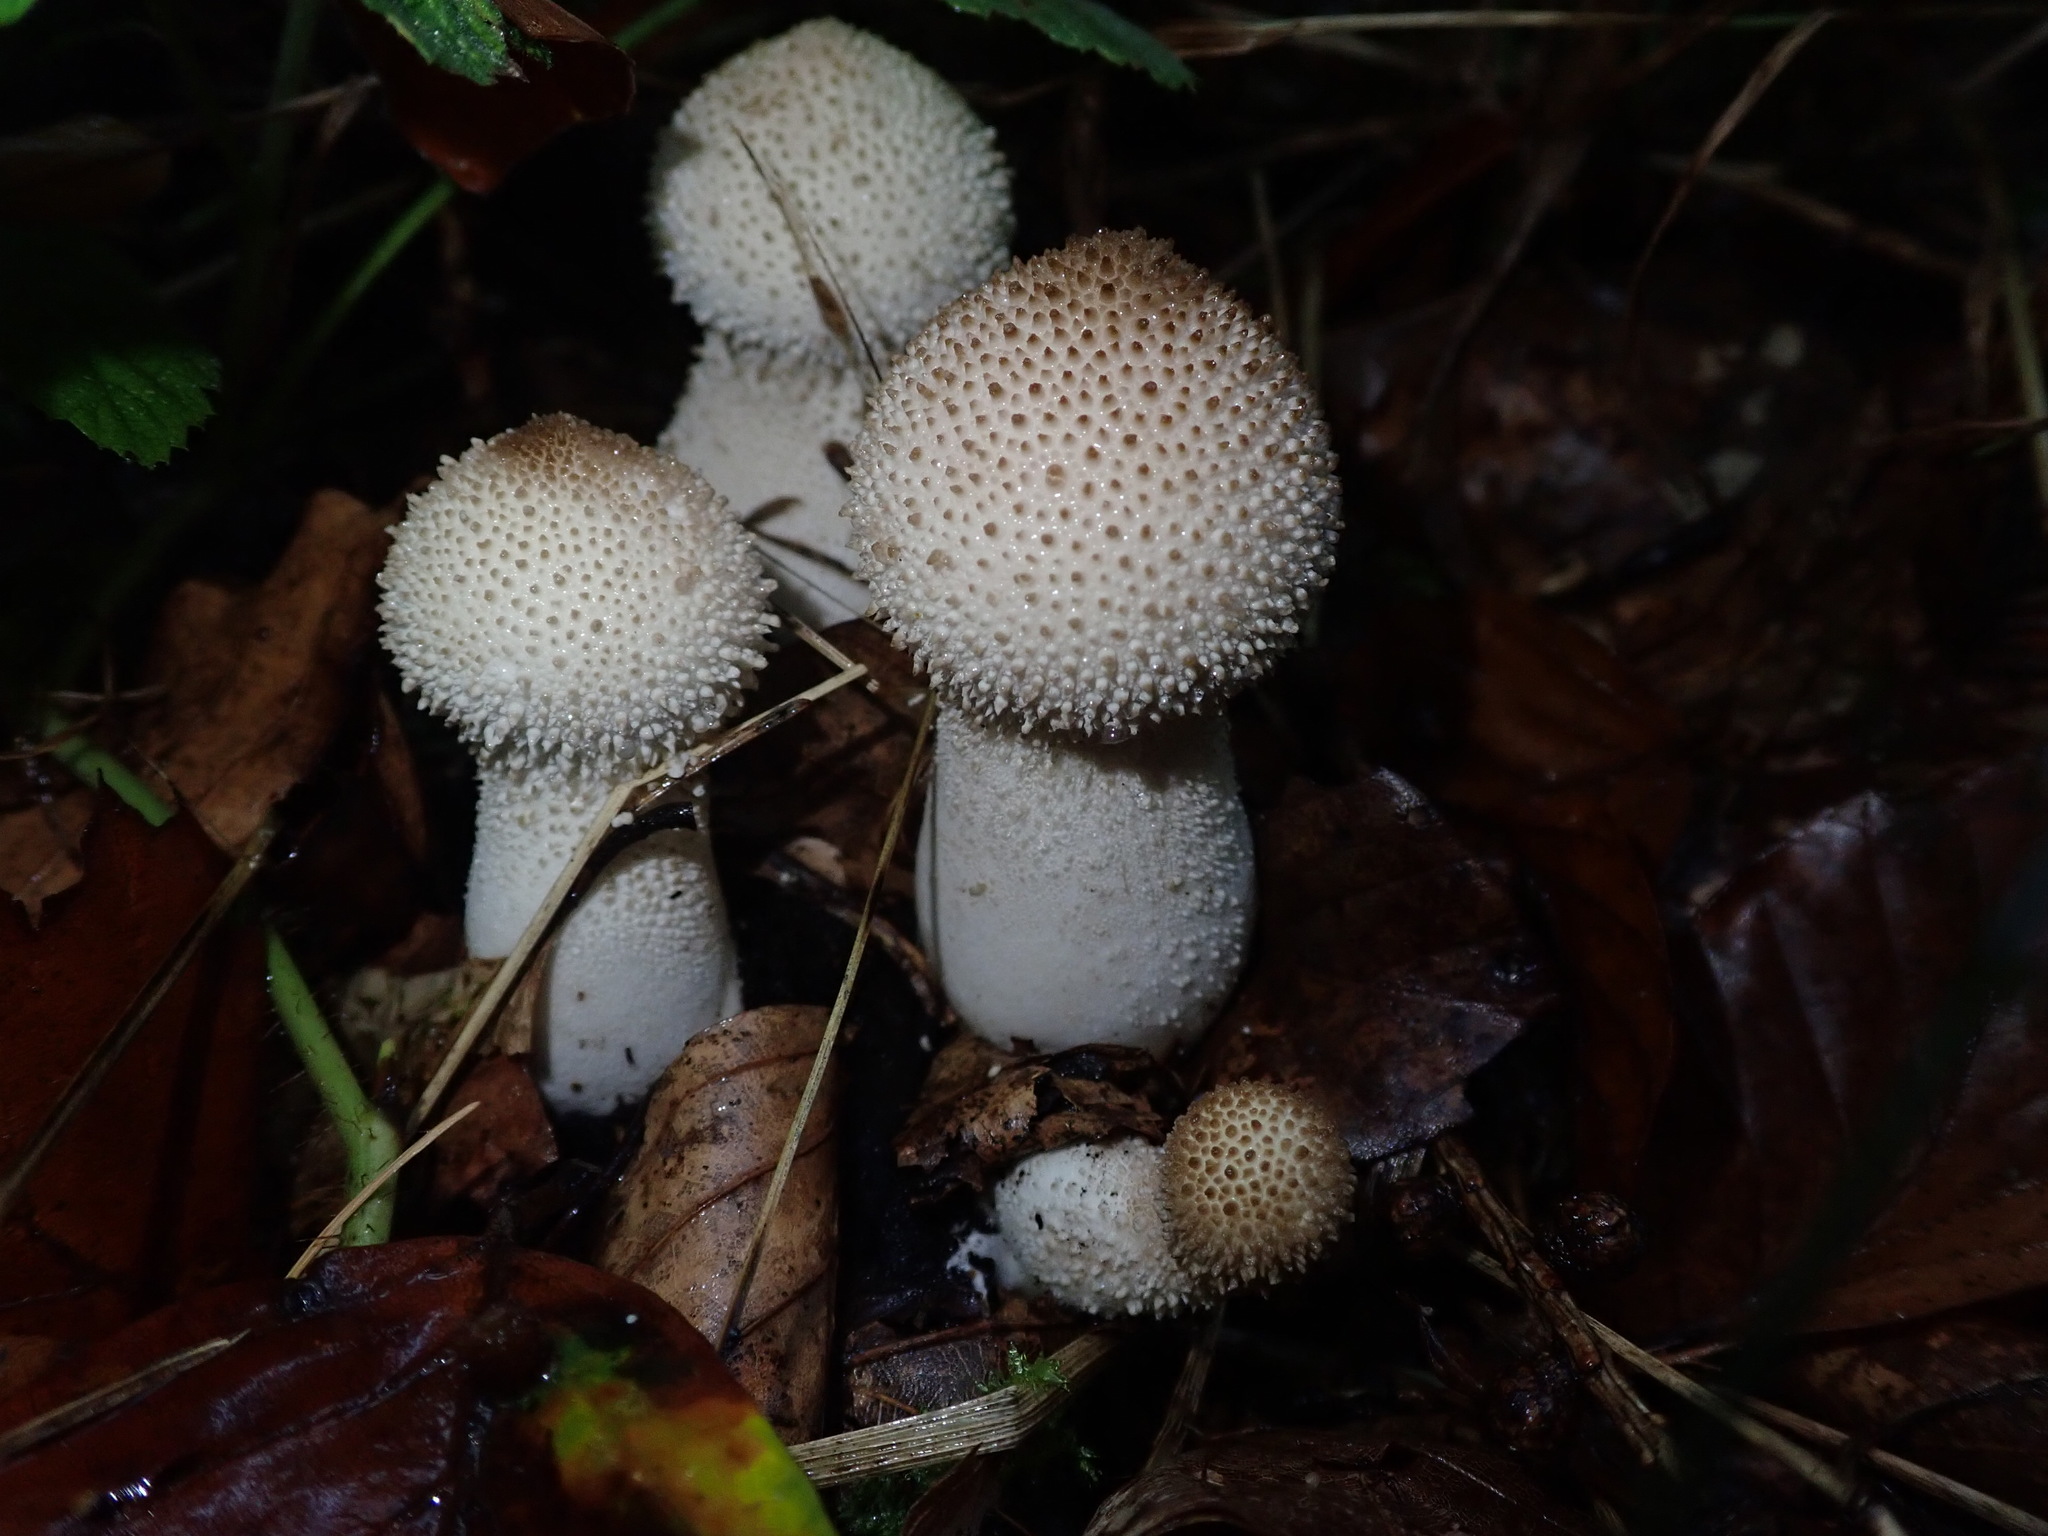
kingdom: Fungi
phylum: Basidiomycota
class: Agaricomycetes
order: Agaricales
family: Lycoperdaceae
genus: Lycoperdon
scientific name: Lycoperdon perlatum
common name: Common puffball
